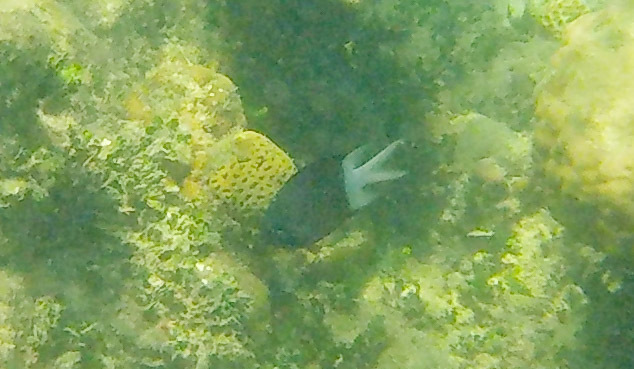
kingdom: Animalia
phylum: Chordata
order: Perciformes
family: Pomacentridae
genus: Acanthochromis
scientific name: Acanthochromis polyacanthus
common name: Spiny chromis
